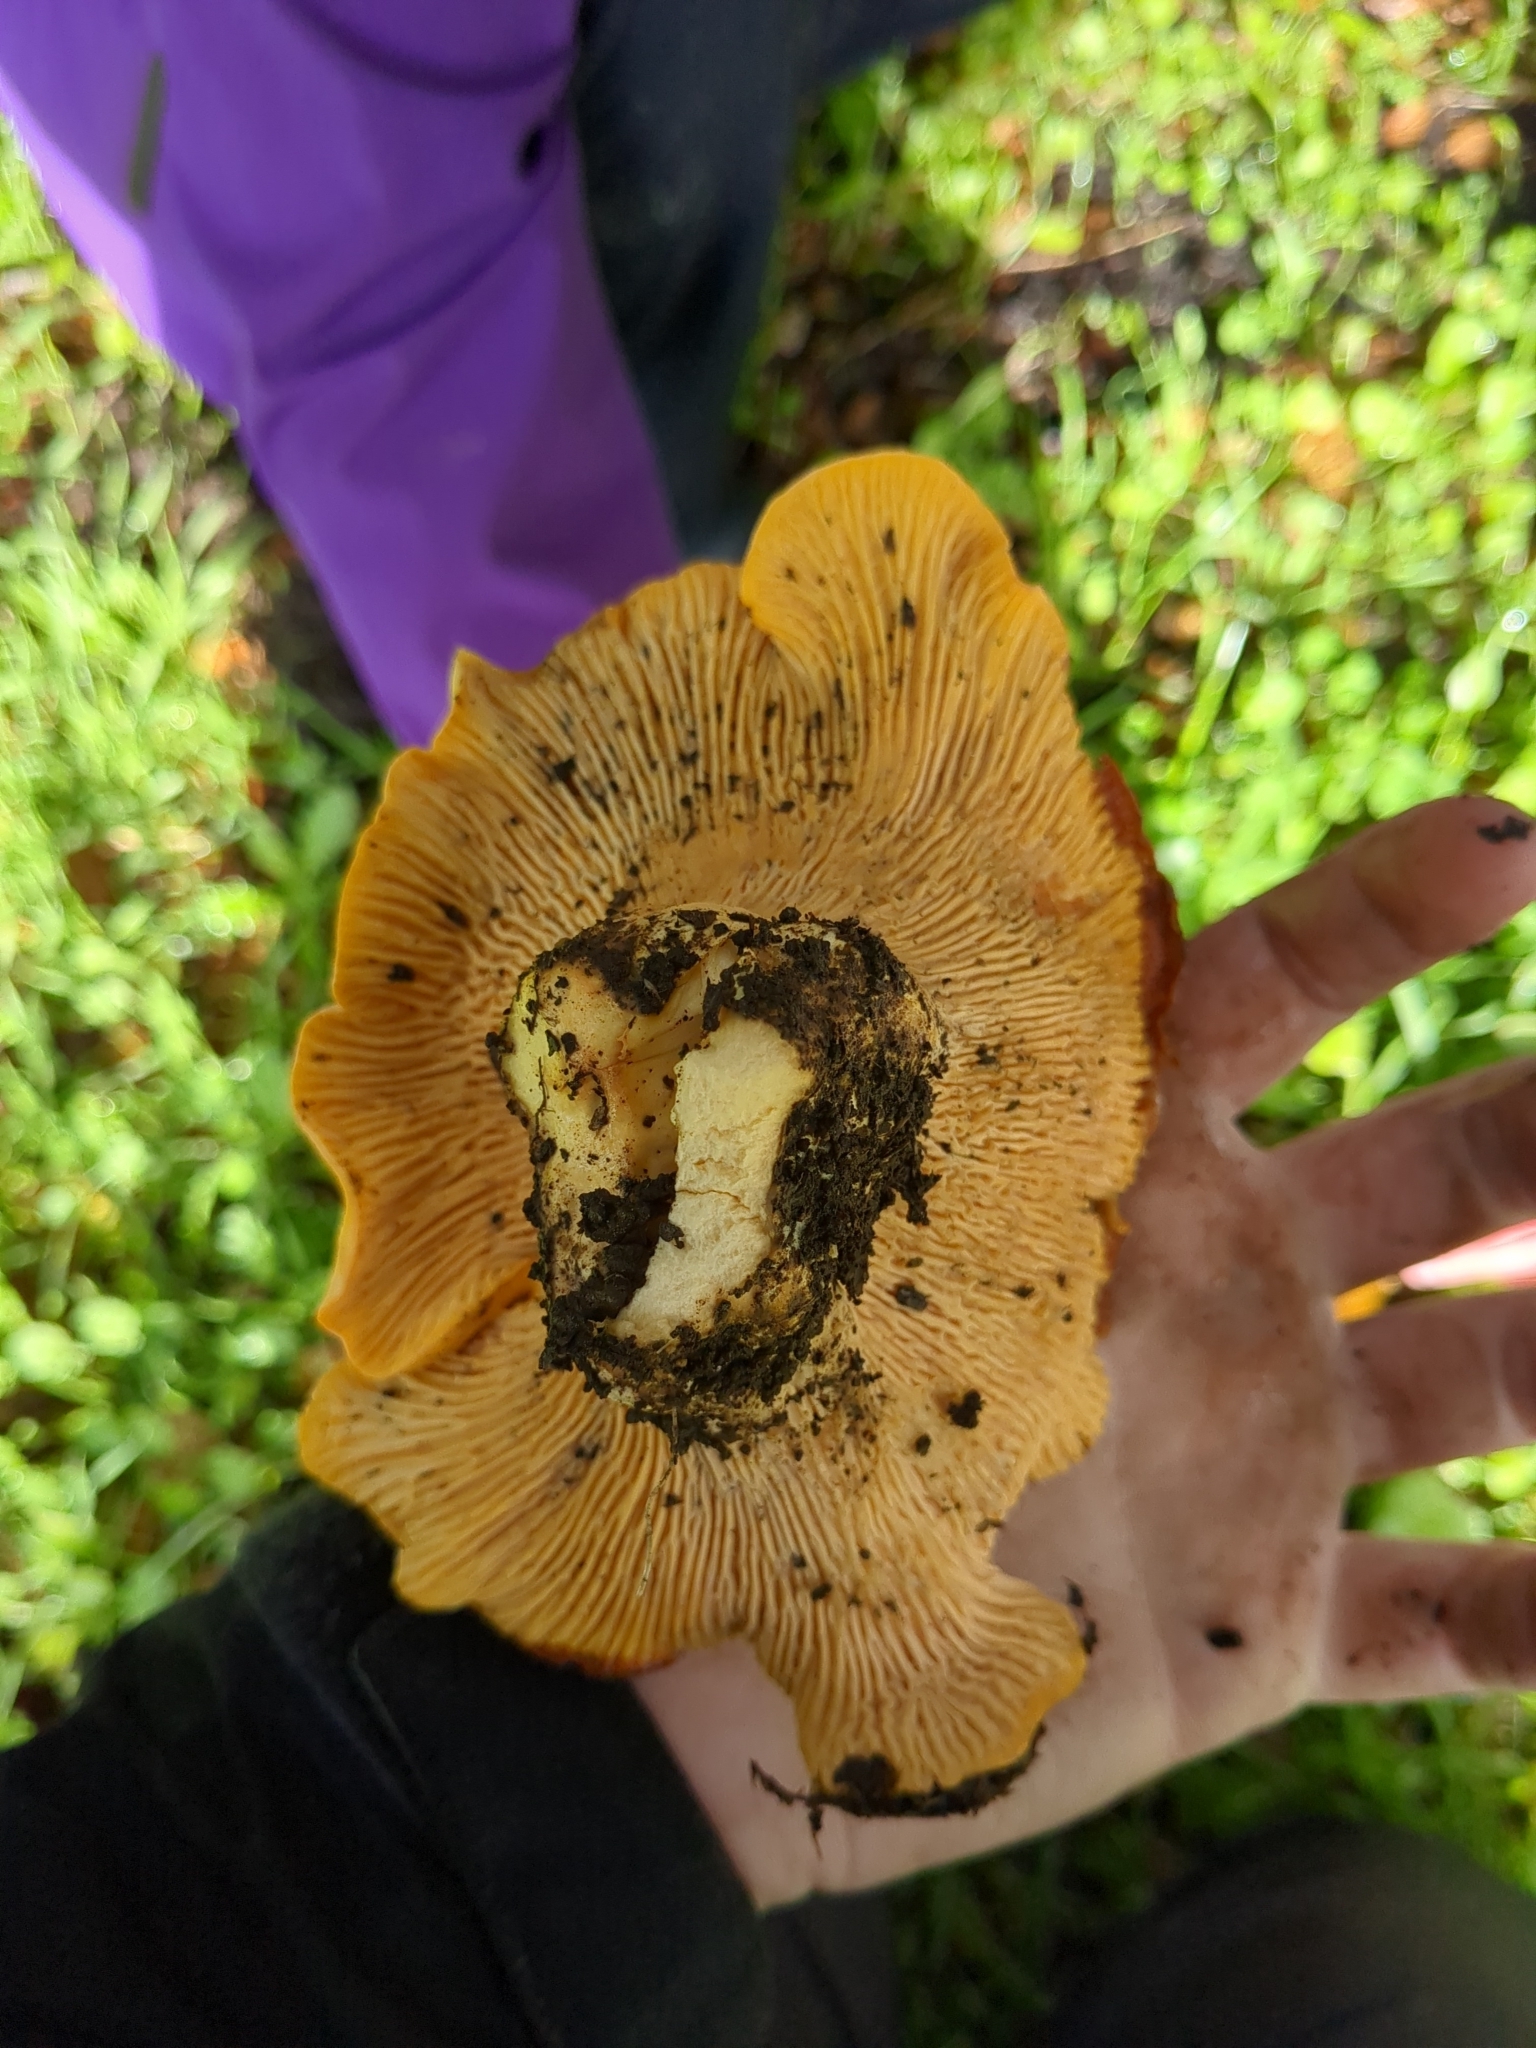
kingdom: Fungi
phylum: Basidiomycota
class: Agaricomycetes
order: Cantharellales
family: Hydnaceae
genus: Cantharellus
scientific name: Cantharellus californicus
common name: California golden chanterelle
